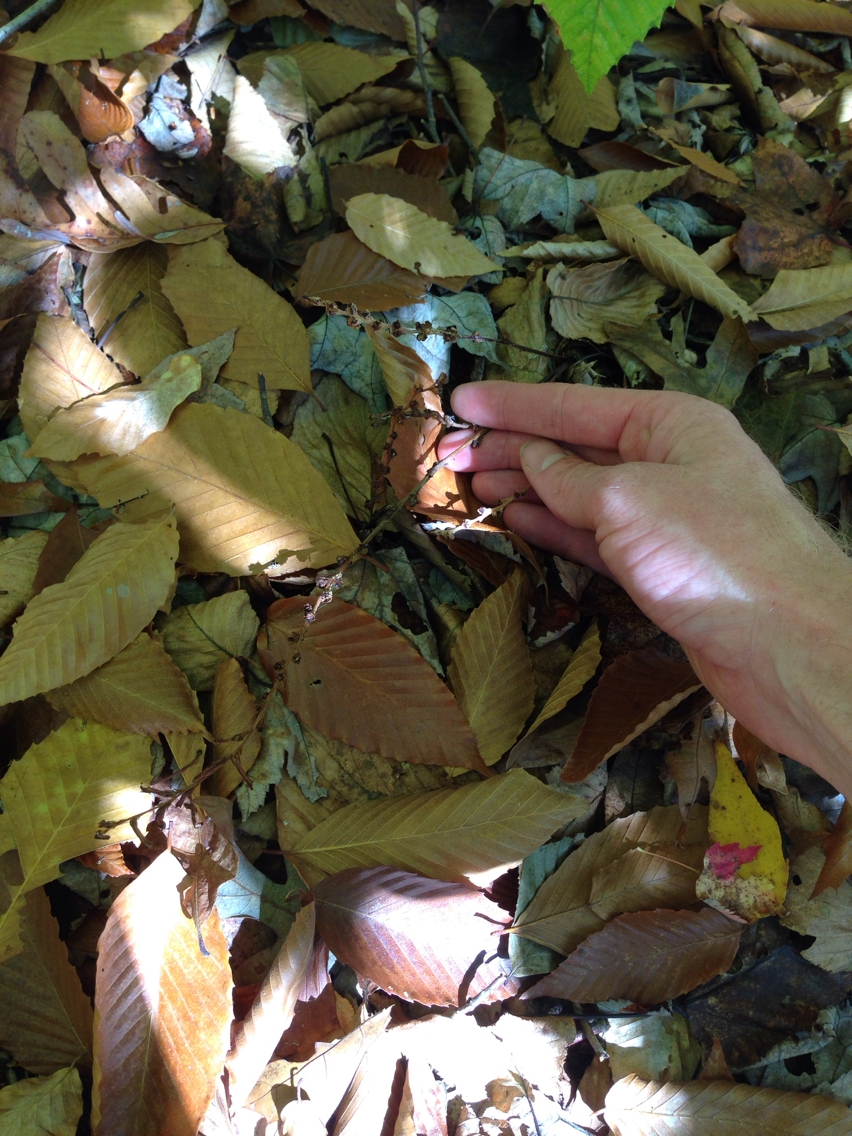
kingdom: Plantae
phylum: Tracheophyta
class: Magnoliopsida
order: Lamiales
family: Orobanchaceae
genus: Epifagus
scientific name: Epifagus virginiana
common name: Beechdrops
